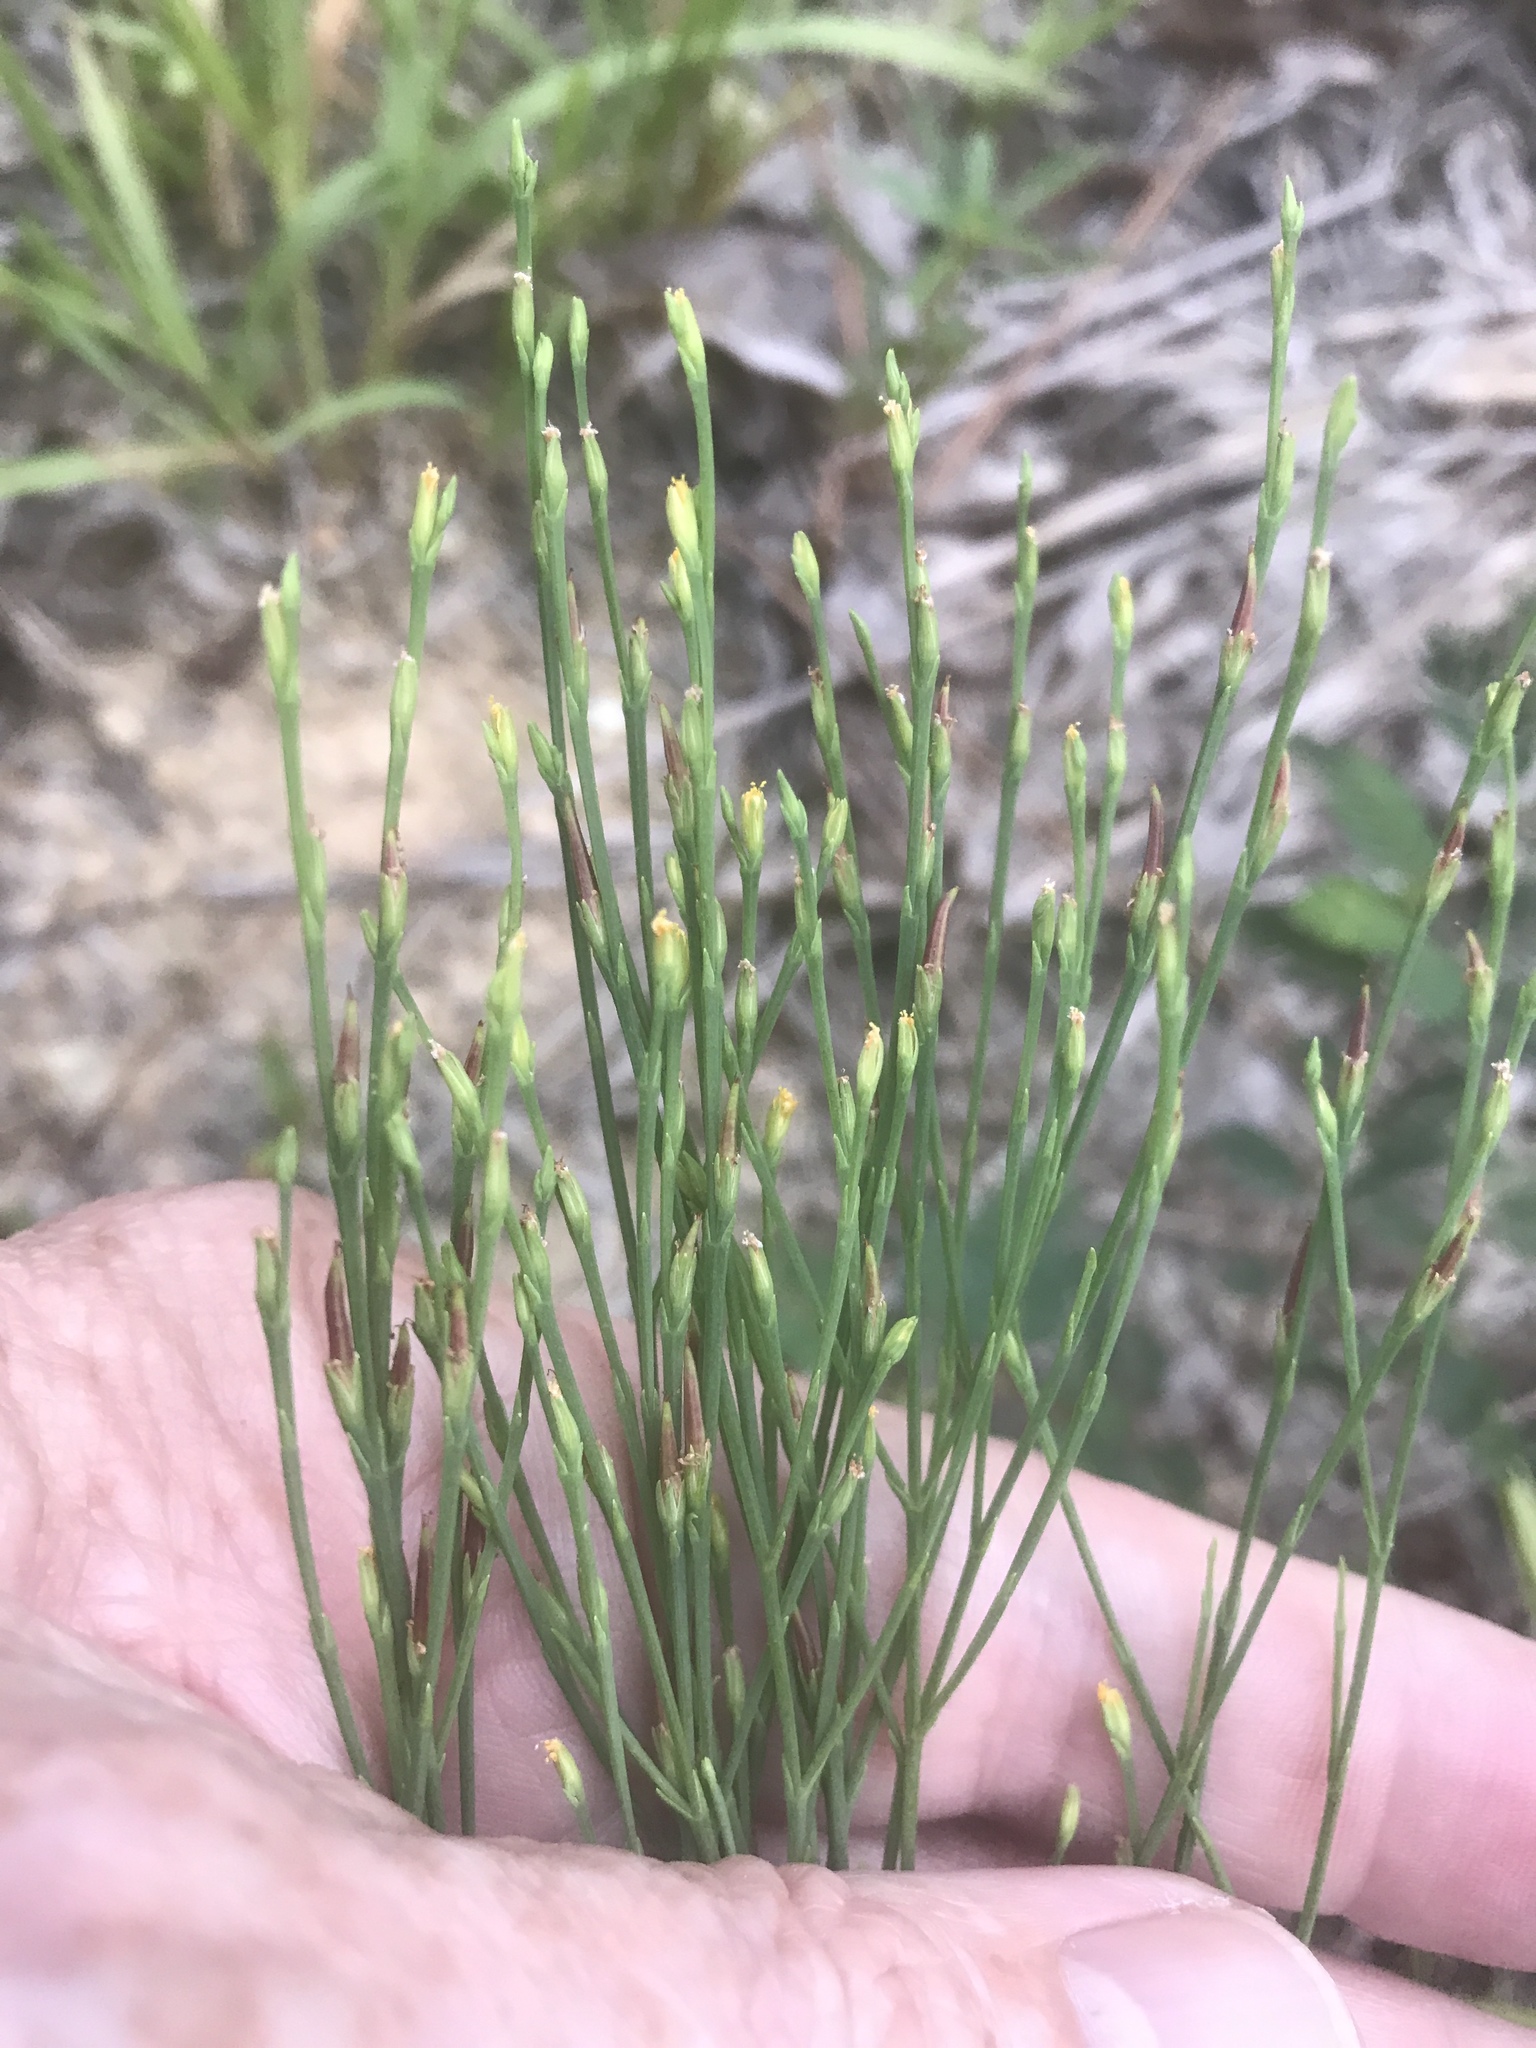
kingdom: Plantae
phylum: Tracheophyta
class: Magnoliopsida
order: Malpighiales
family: Hypericaceae
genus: Hypericum
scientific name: Hypericum gentianoides
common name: Gentian-leaved st. john's-wort
